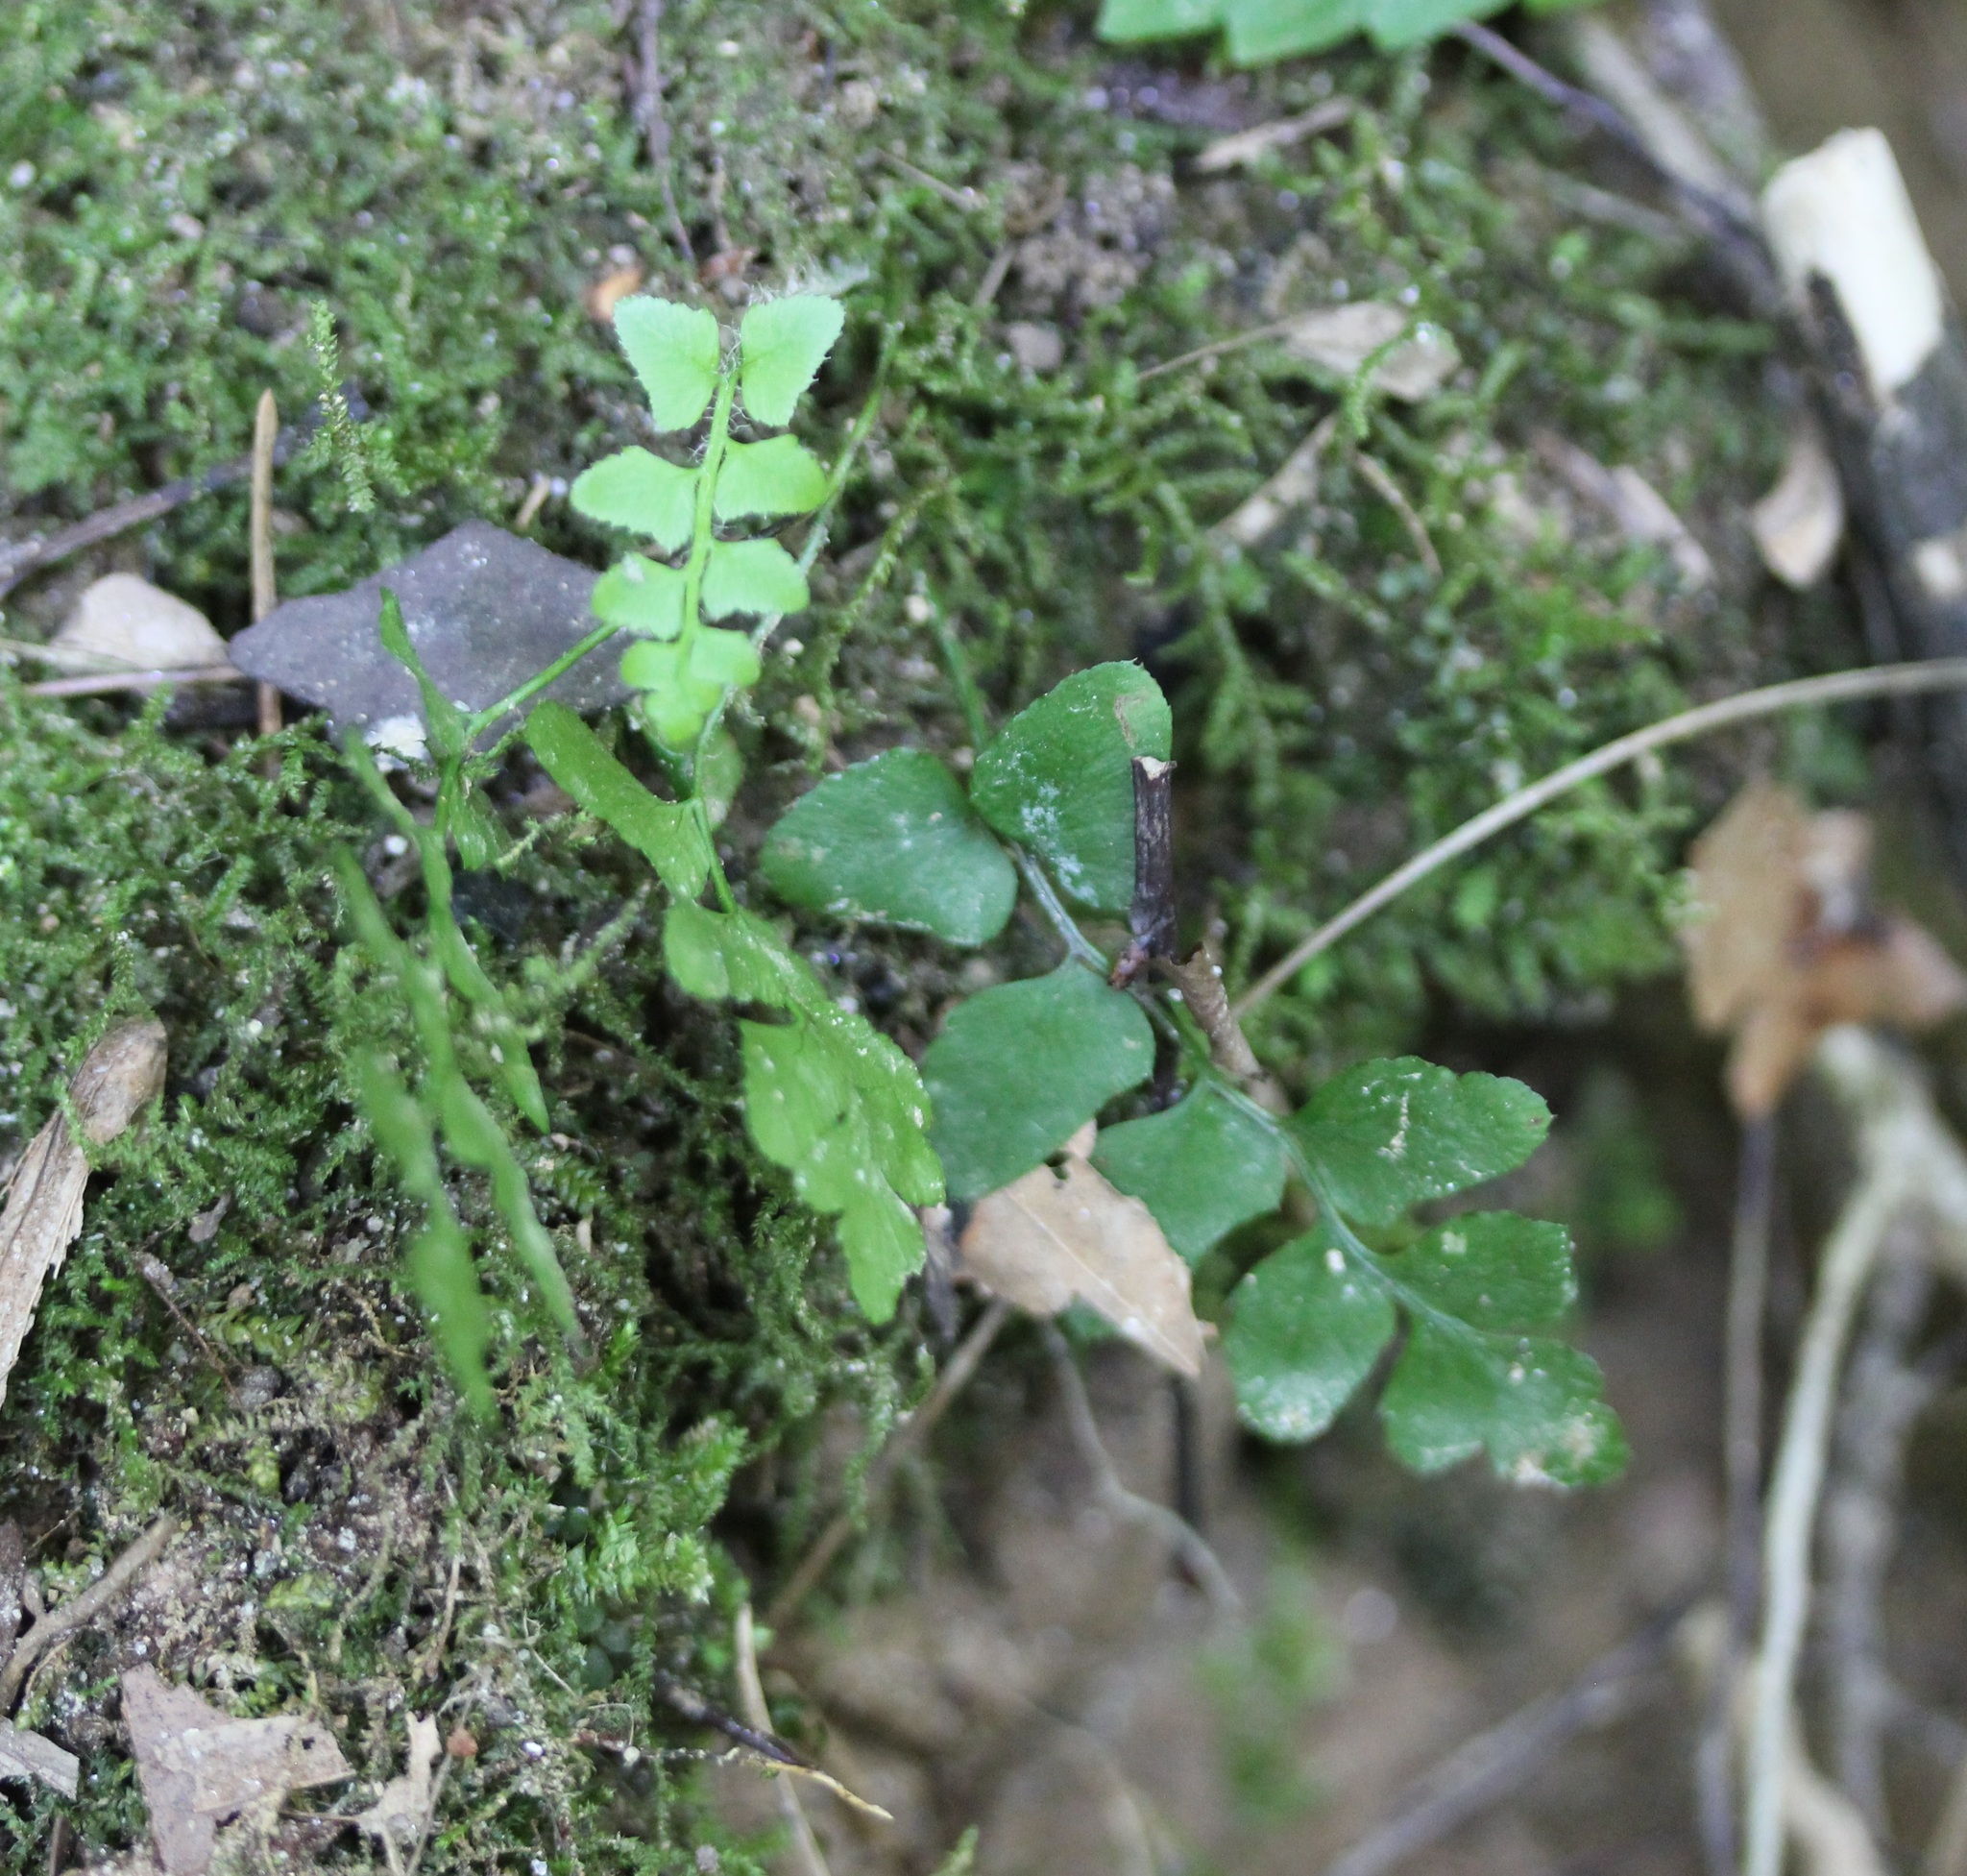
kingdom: Plantae
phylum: Tracheophyta
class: Polypodiopsida
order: Polypodiales
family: Dryopteridaceae
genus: Polystichum
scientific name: Polystichum acrostichoides
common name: Christmas fern
